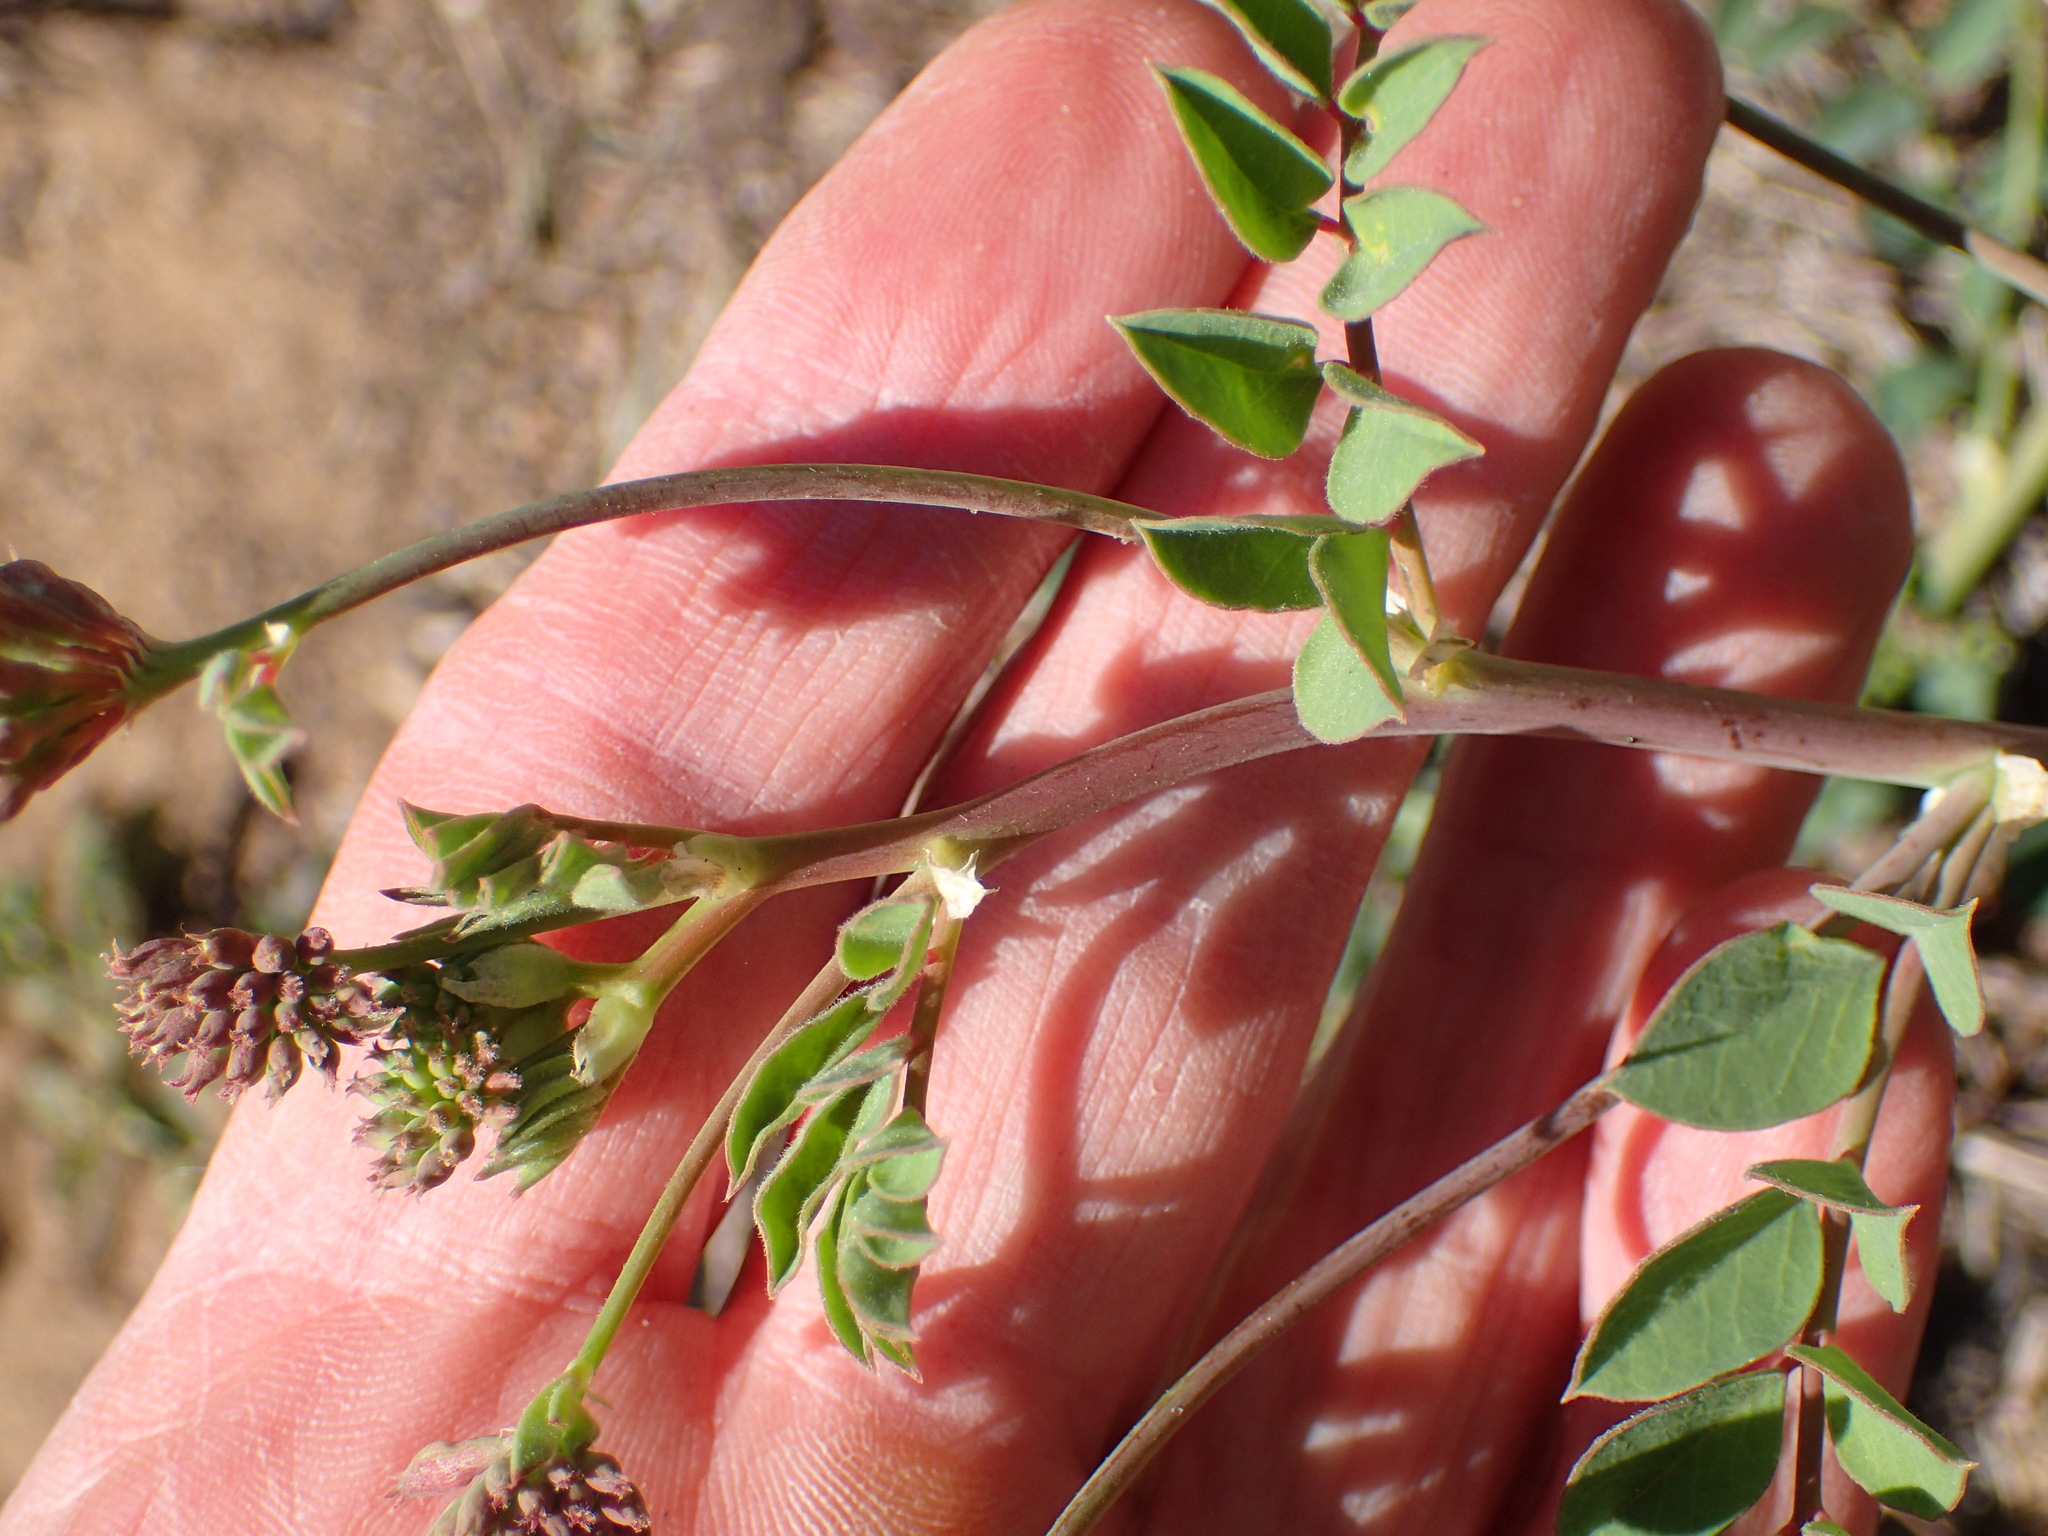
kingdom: Plantae
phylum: Tracheophyta
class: Magnoliopsida
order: Fabales
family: Fabaceae
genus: Hosackia
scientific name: Hosackia crassifolia
